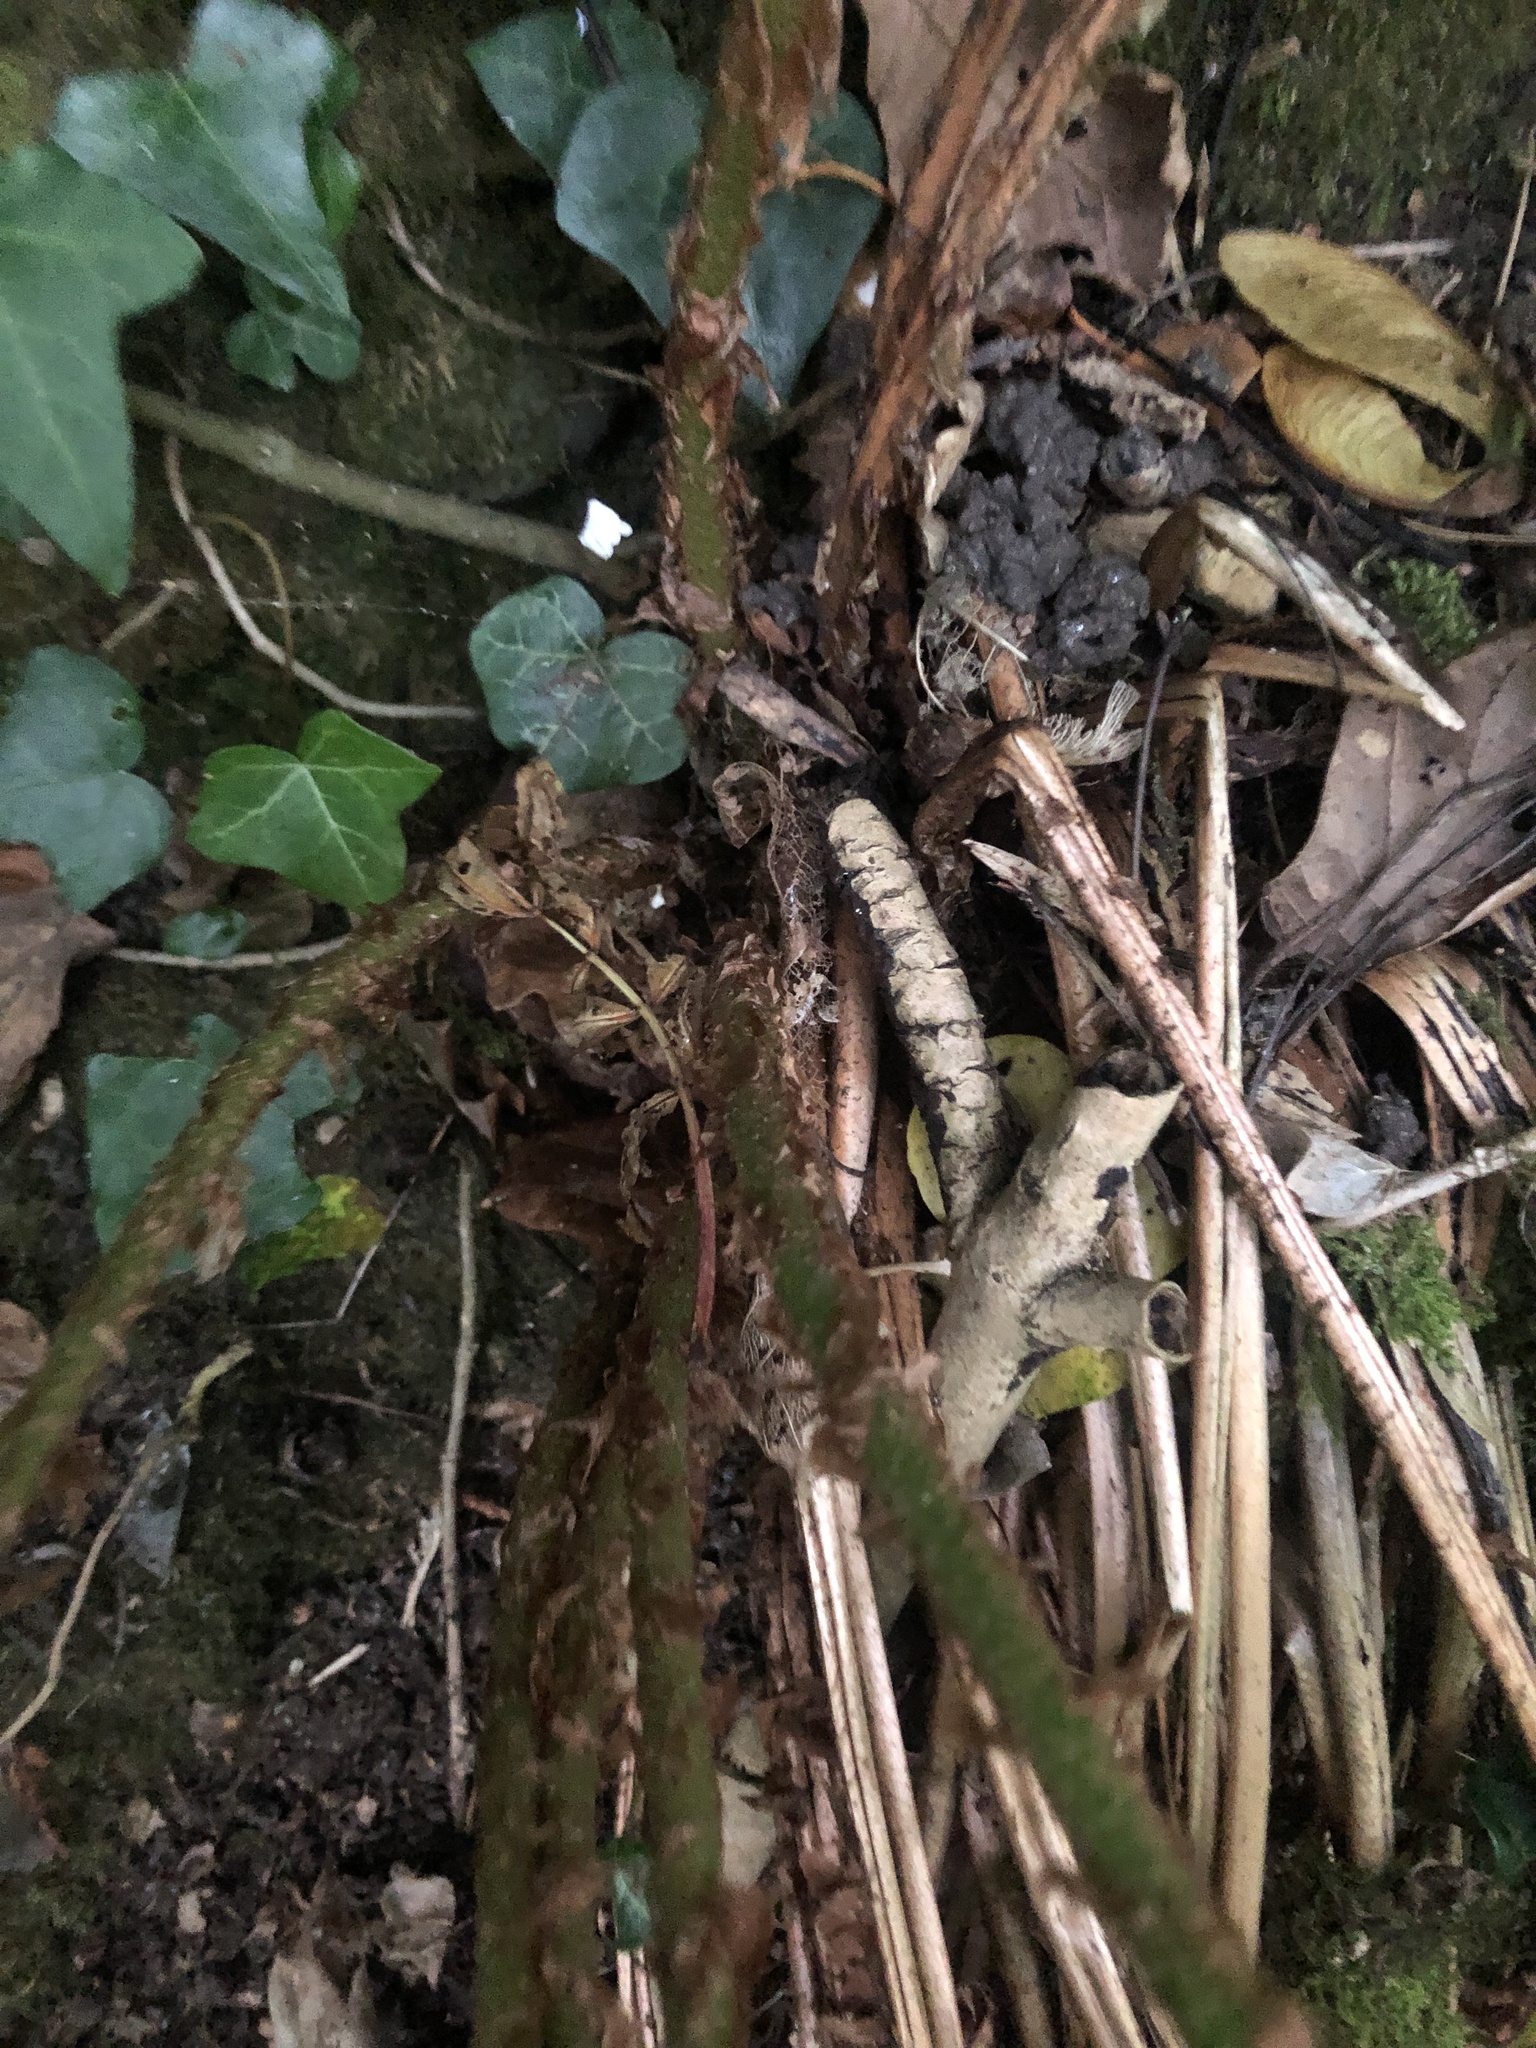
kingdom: Plantae
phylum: Tracheophyta
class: Polypodiopsida
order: Polypodiales
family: Dryopteridaceae
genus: Dryopteris
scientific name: Dryopteris filix-mas
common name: Male fern
